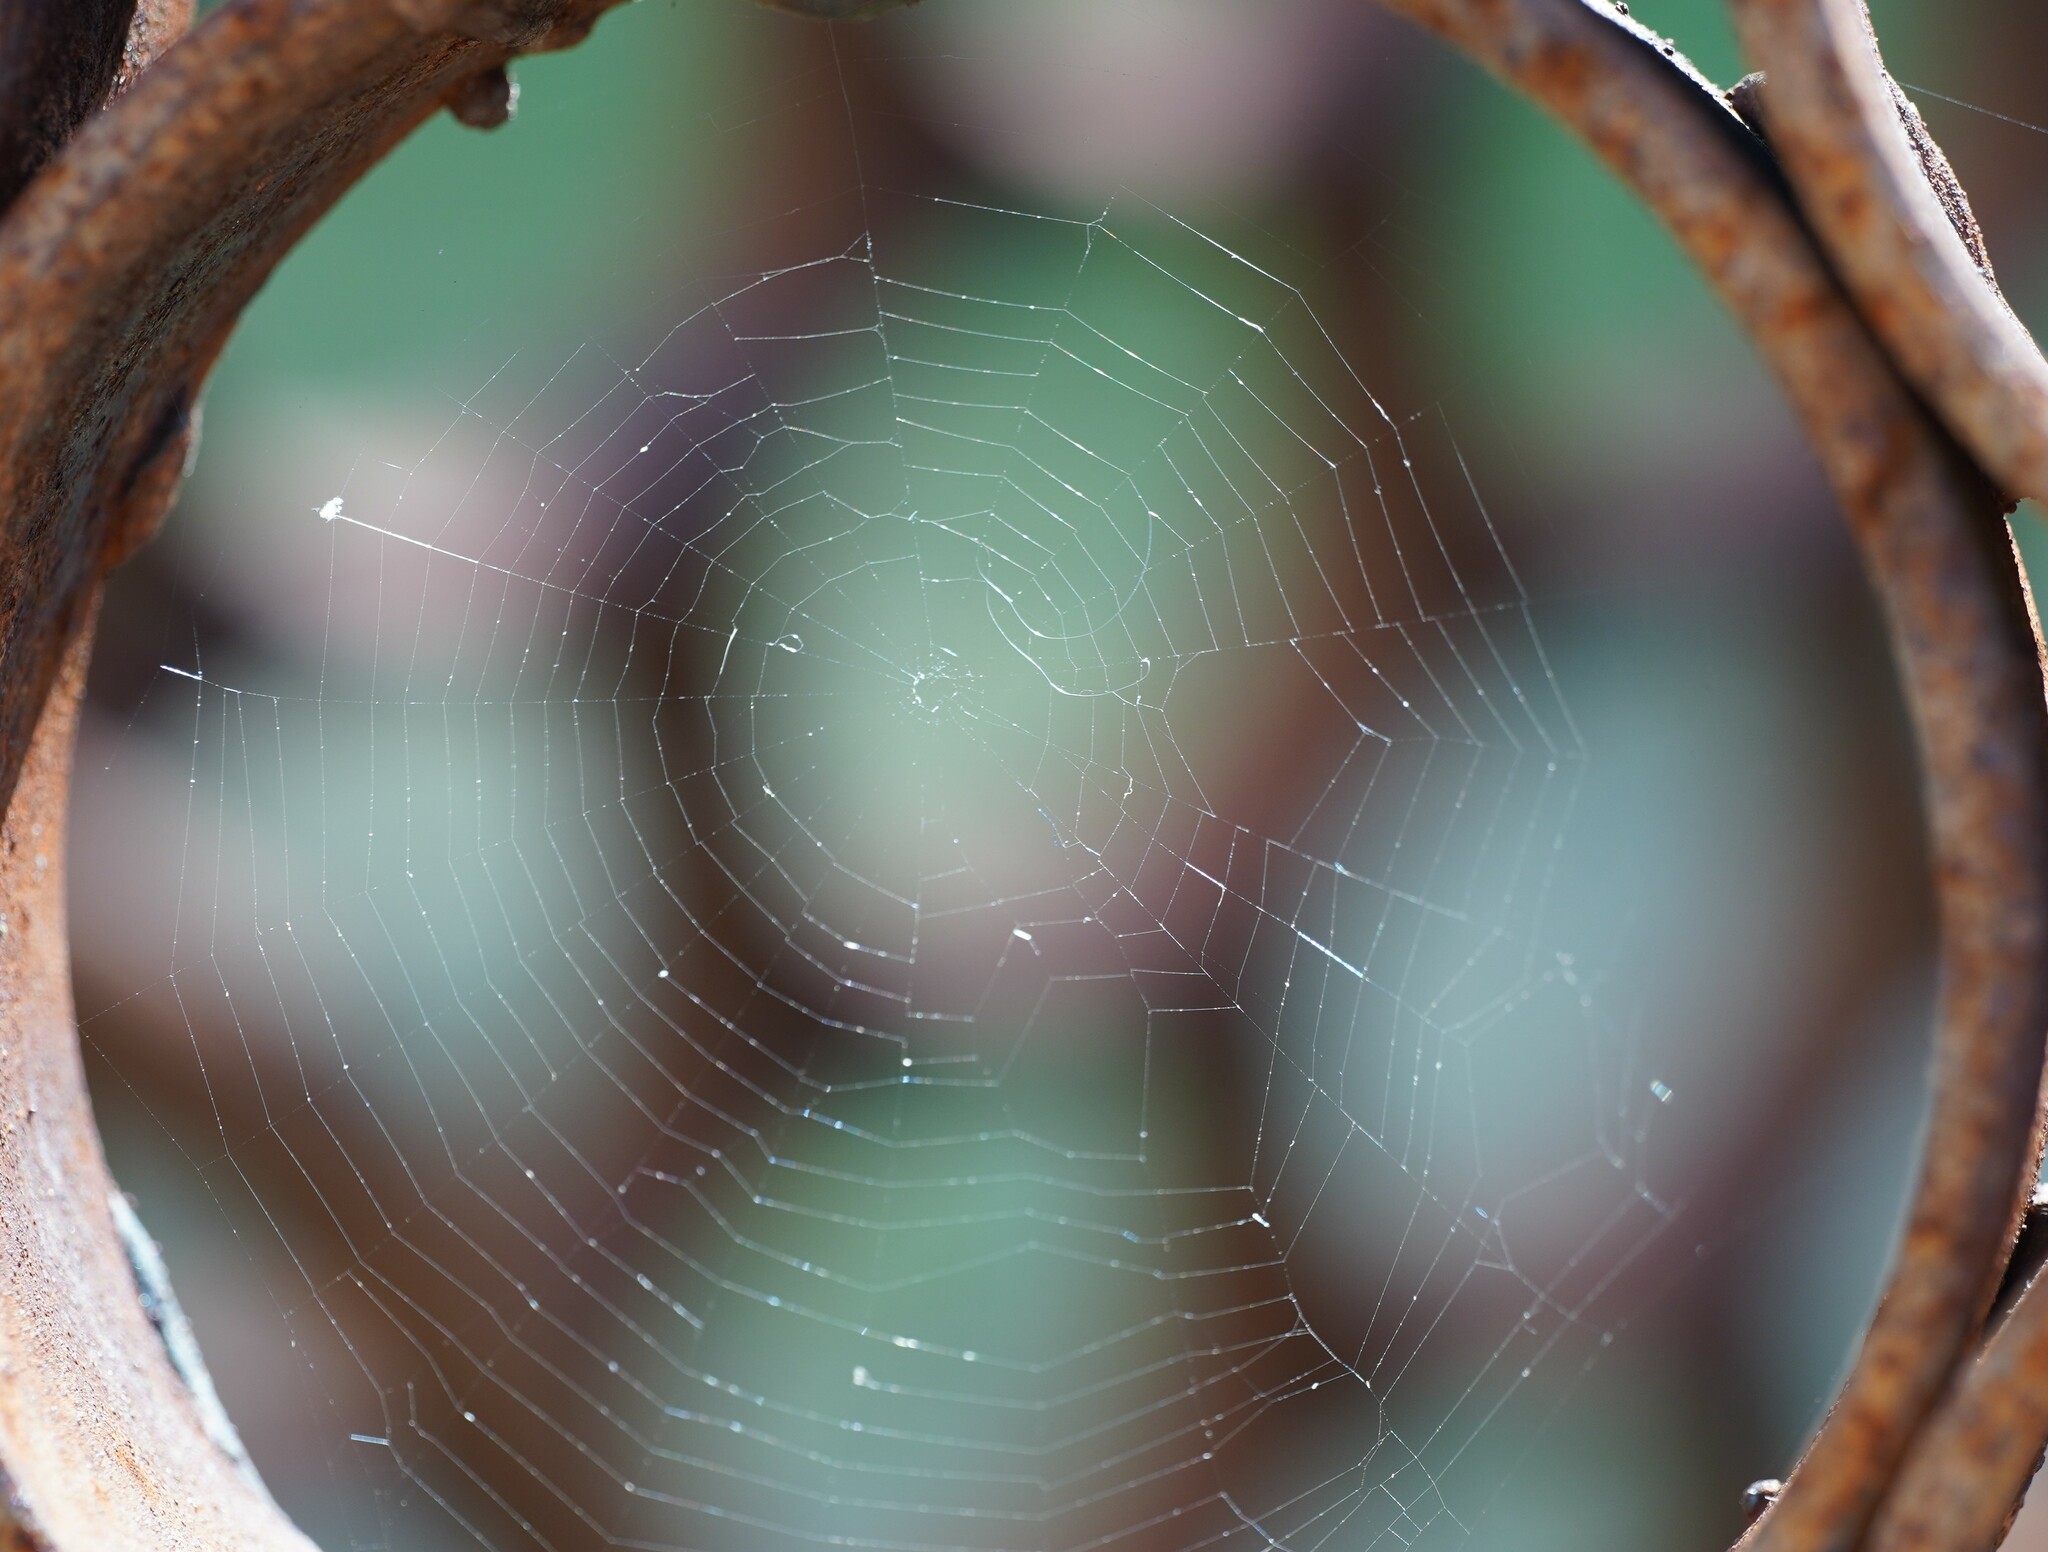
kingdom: Animalia
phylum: Arthropoda
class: Arachnida
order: Araneae
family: Araneidae
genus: Nuctenea
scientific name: Nuctenea umbratica
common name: Toad spider
